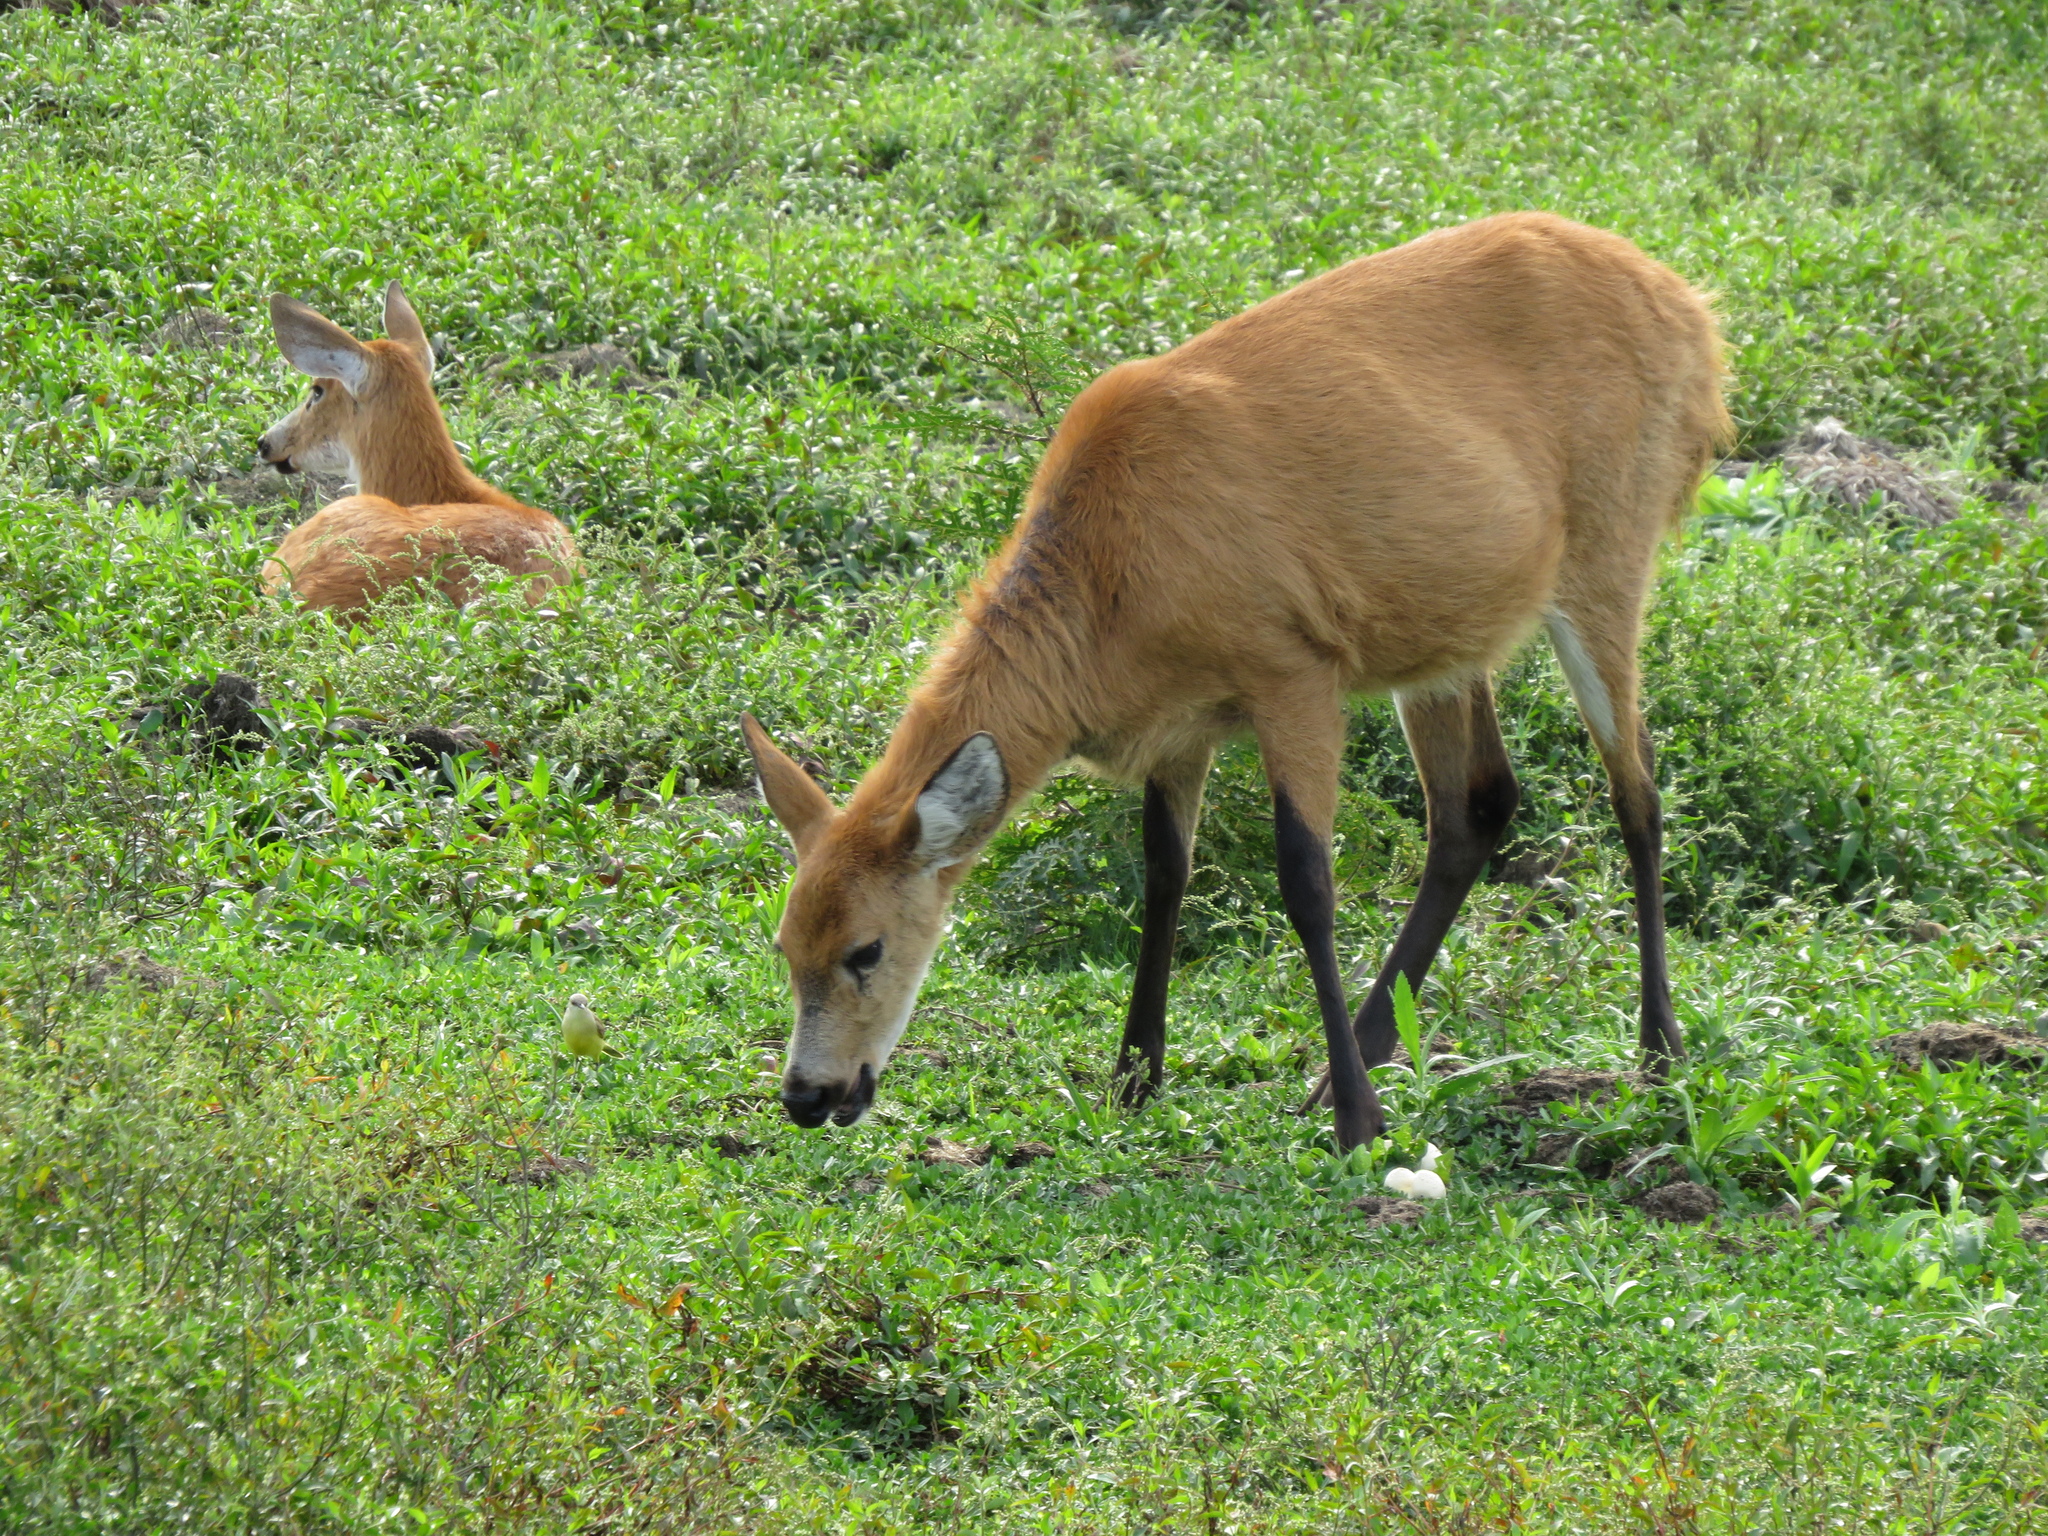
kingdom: Animalia
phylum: Chordata
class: Mammalia
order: Artiodactyla
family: Cervidae
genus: Blastocerus
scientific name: Blastocerus dichotomus
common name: Marsh deer
